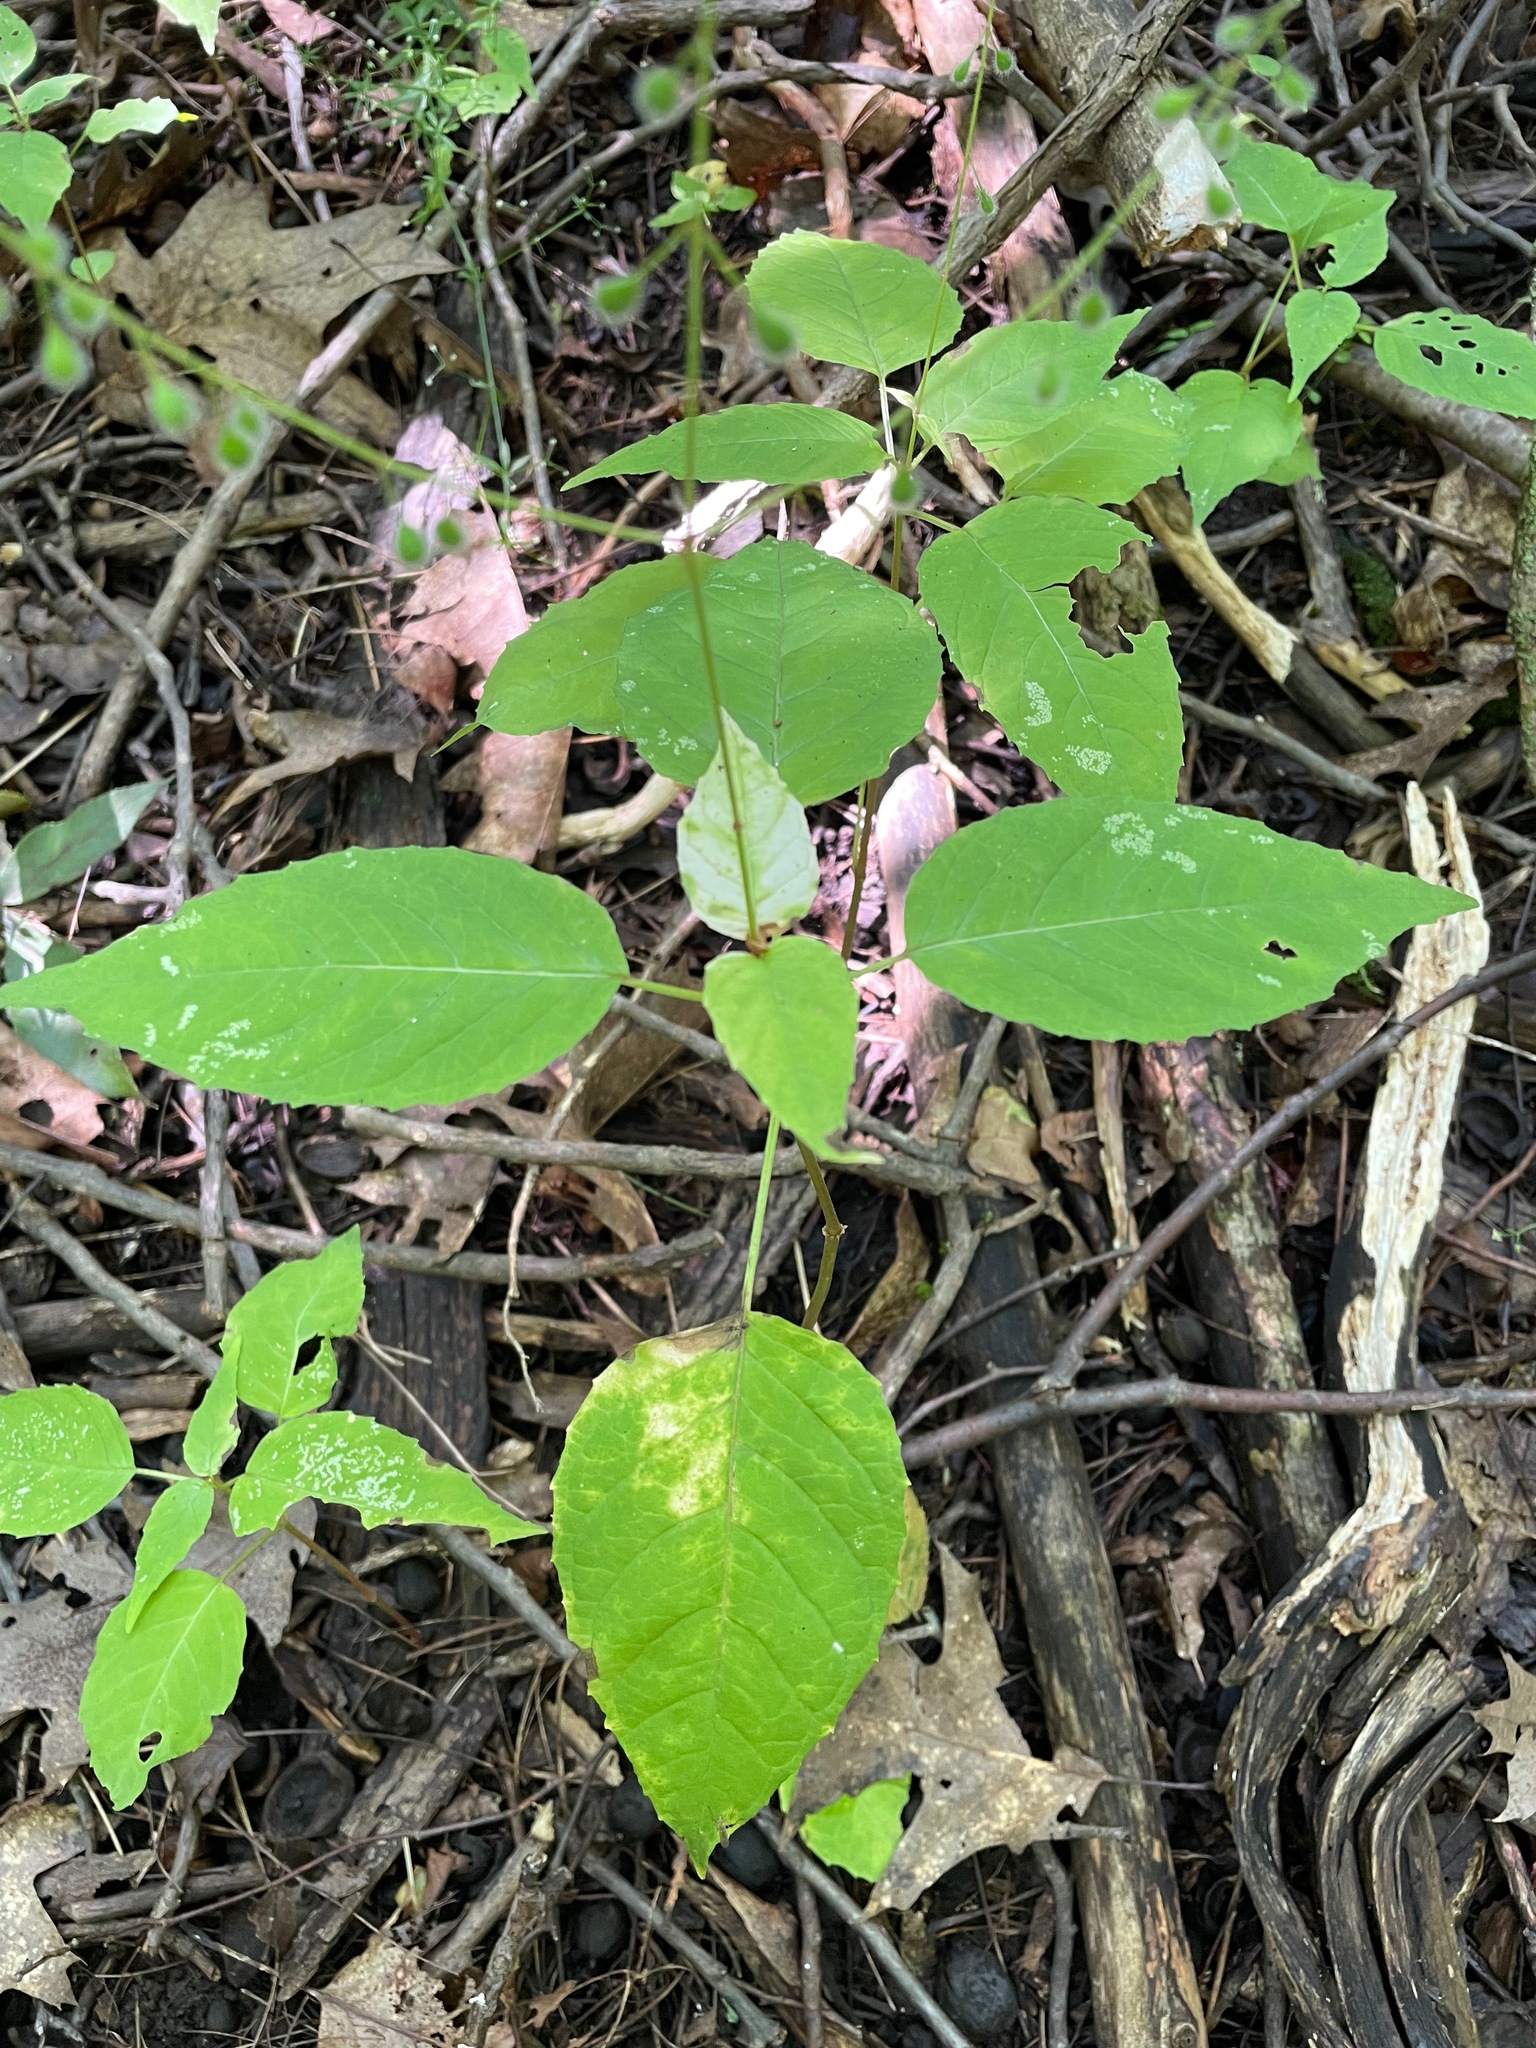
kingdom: Plantae
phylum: Tracheophyta
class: Magnoliopsida
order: Myrtales
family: Onagraceae
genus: Circaea
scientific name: Circaea canadensis
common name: Broad-leaved enchanter's nightshade
